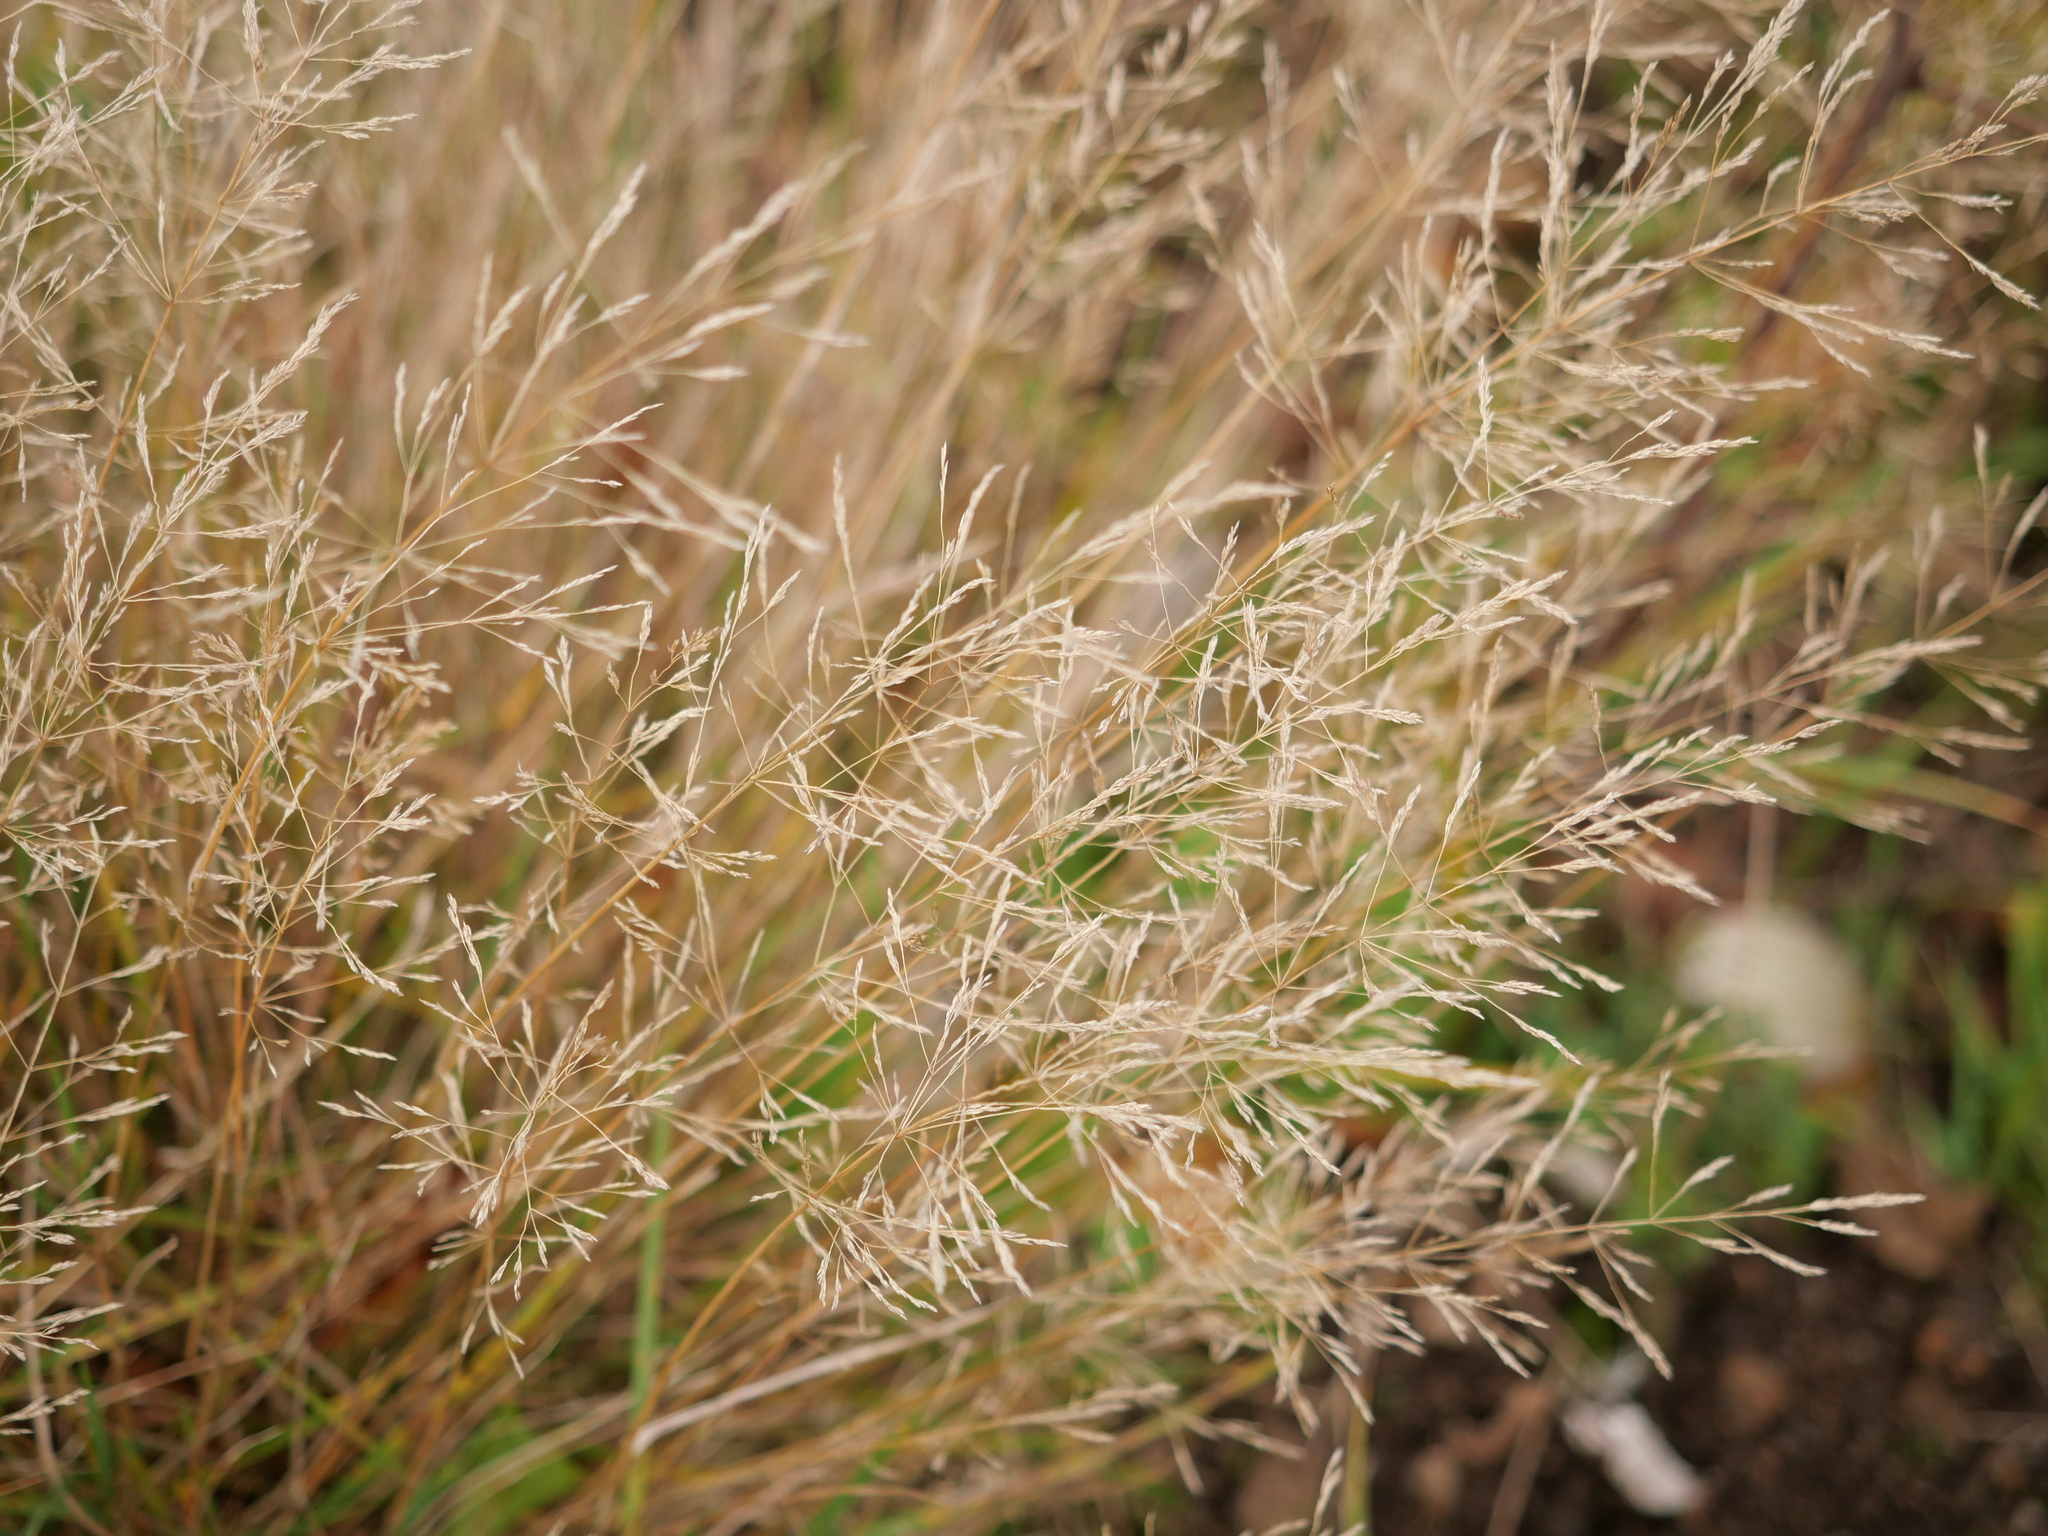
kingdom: Plantae
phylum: Tracheophyta
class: Liliopsida
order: Poales
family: Poaceae
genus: Agrostis
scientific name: Agrostis capillaris
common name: Colonial bentgrass
